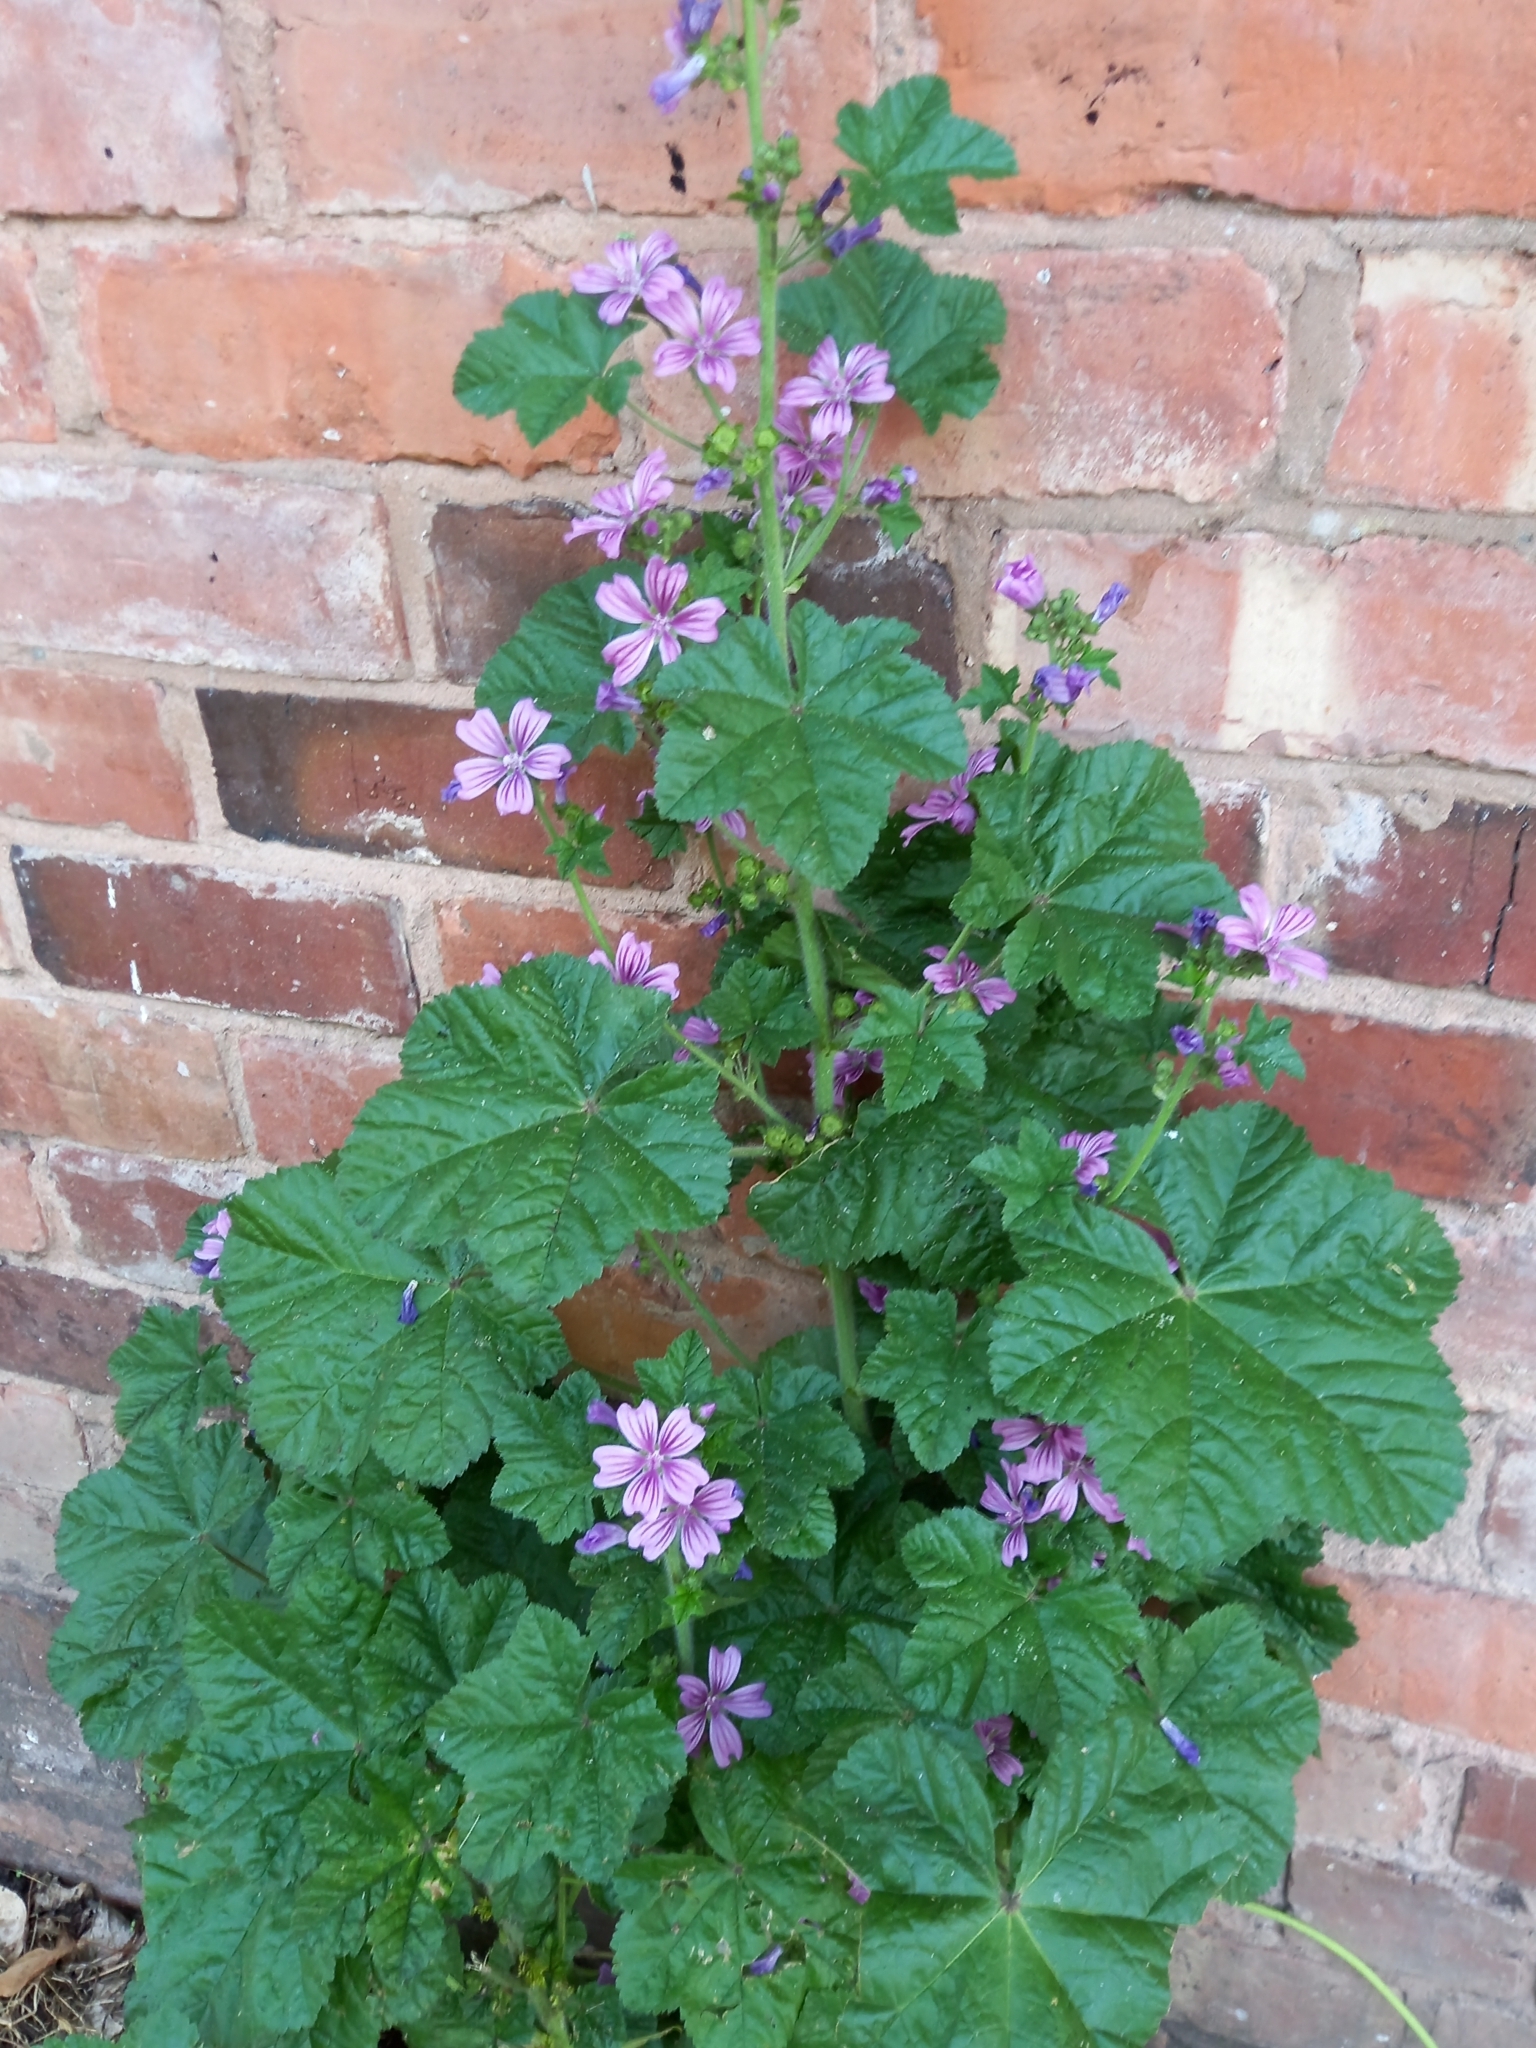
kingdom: Plantae
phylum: Tracheophyta
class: Magnoliopsida
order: Malvales
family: Malvaceae
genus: Malva
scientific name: Malva sylvestris
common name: Common mallow
